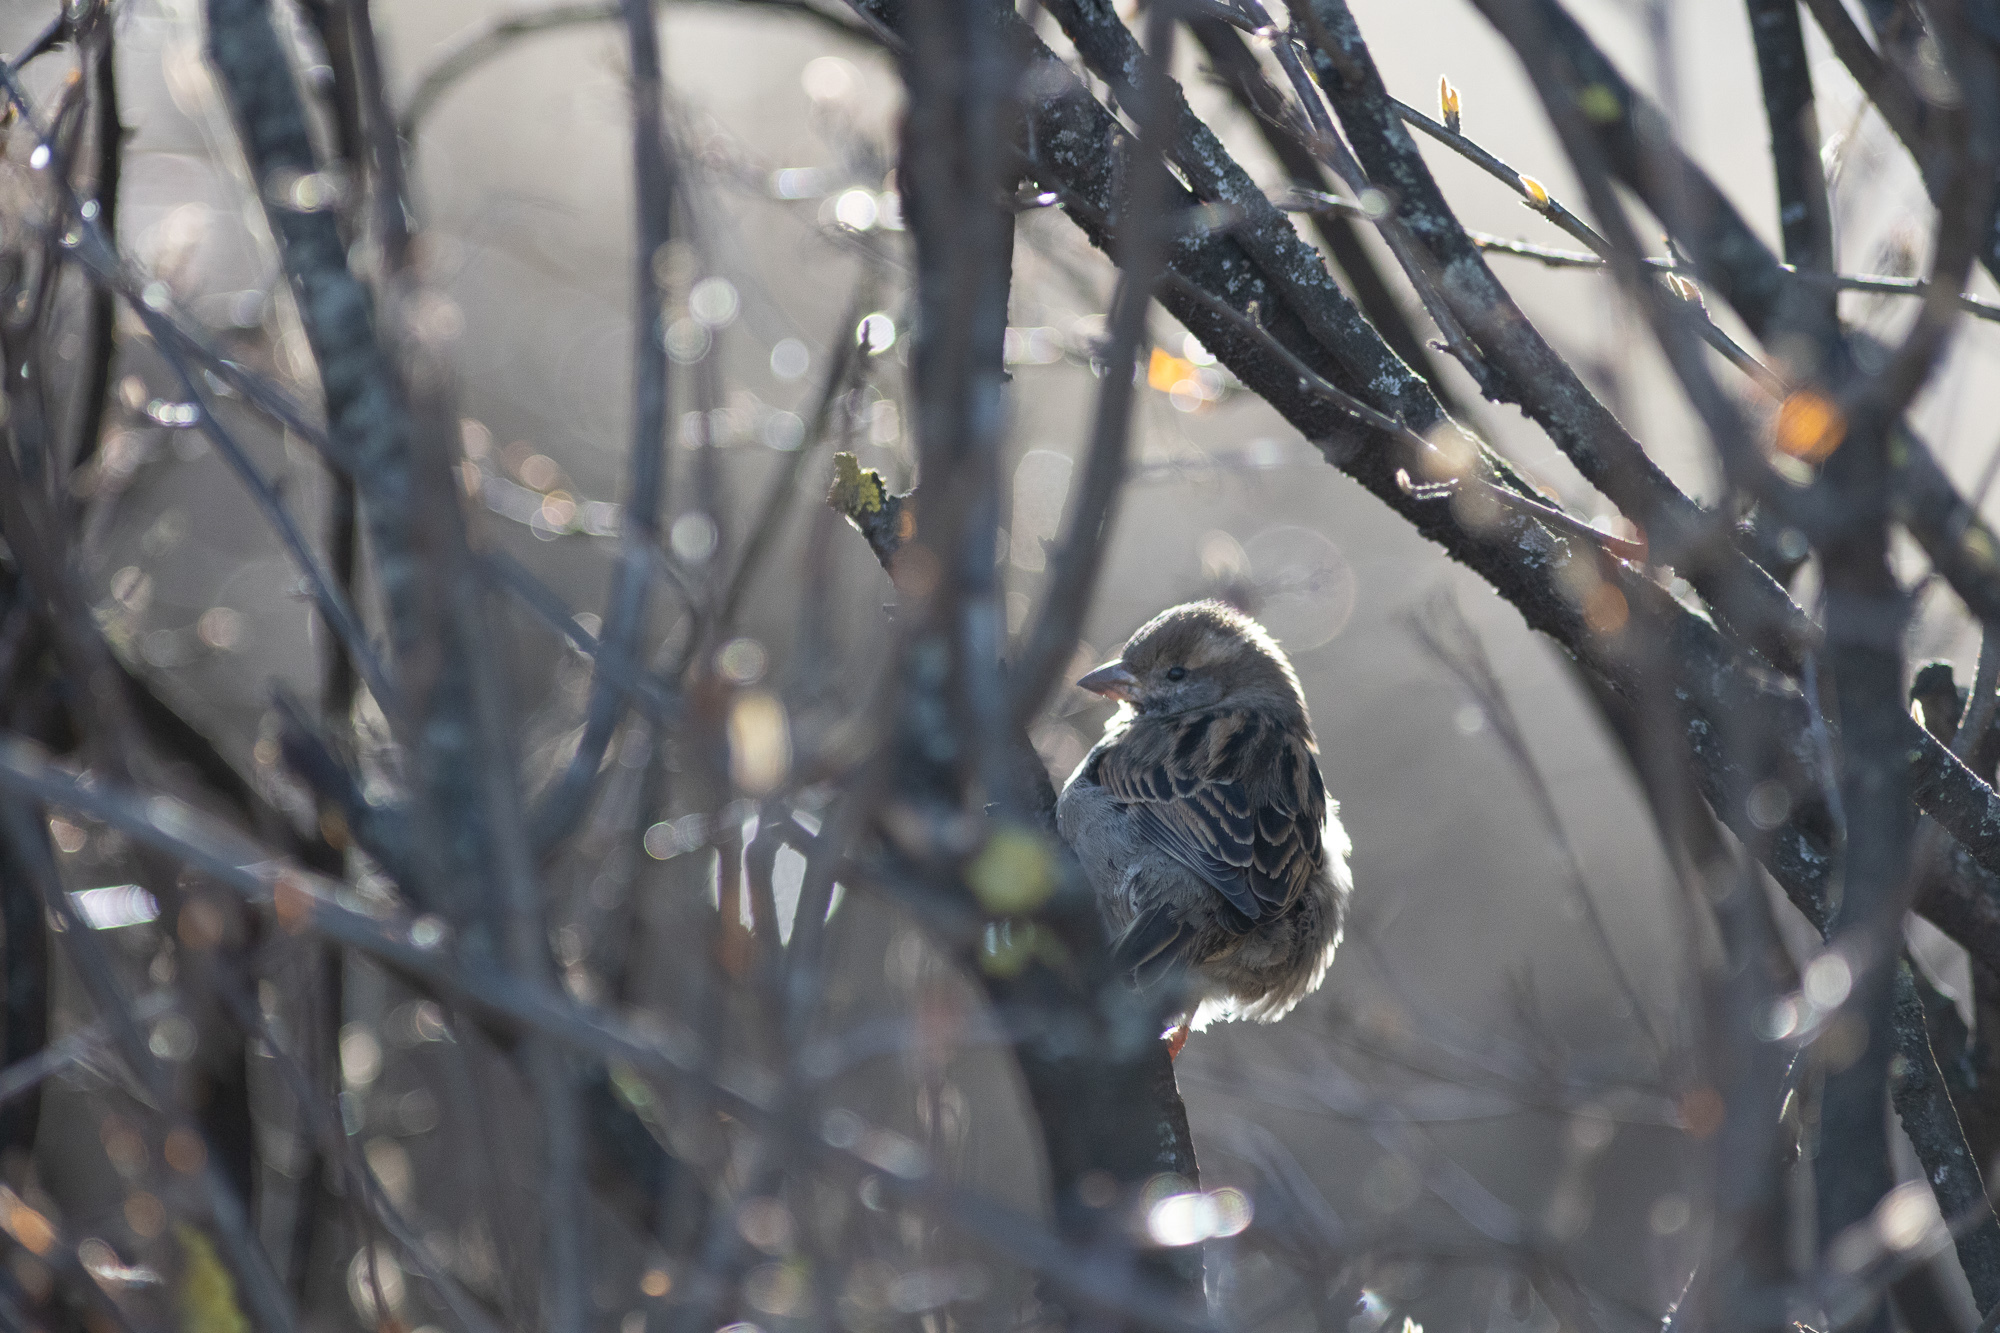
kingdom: Animalia
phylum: Chordata
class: Aves
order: Passeriformes
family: Passeridae
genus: Passer
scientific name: Passer domesticus
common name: House sparrow
